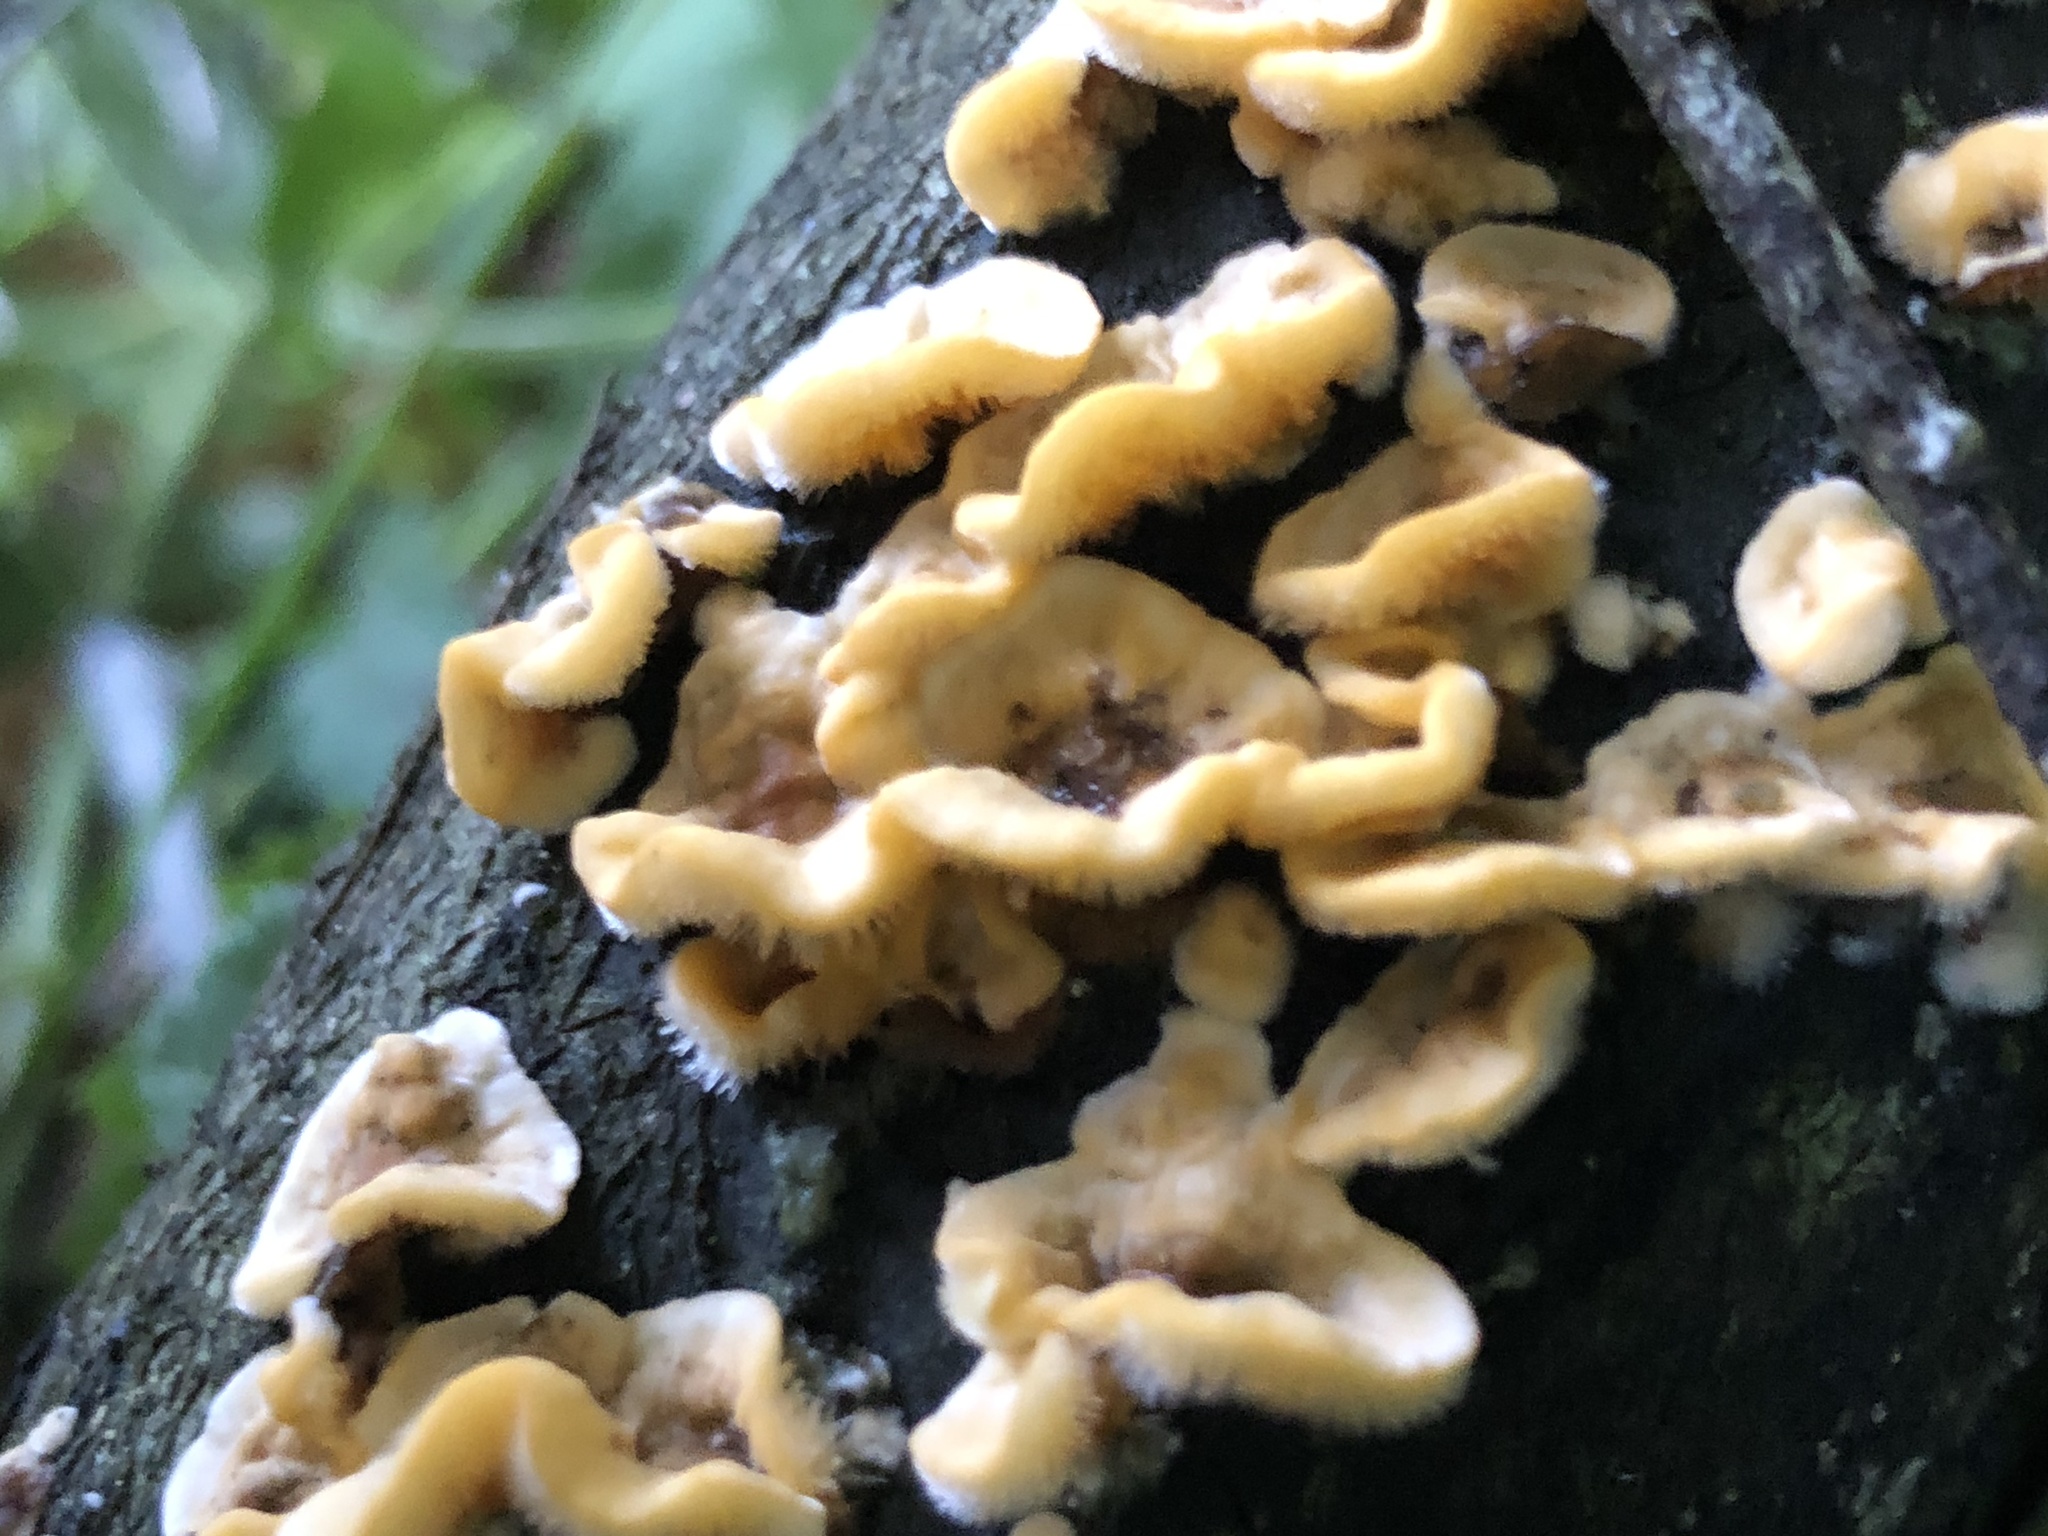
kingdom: Fungi
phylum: Basidiomycota
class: Agaricomycetes
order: Russulales
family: Stereaceae
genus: Stereum
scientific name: Stereum hirsutum
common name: Hairy curtain crust
